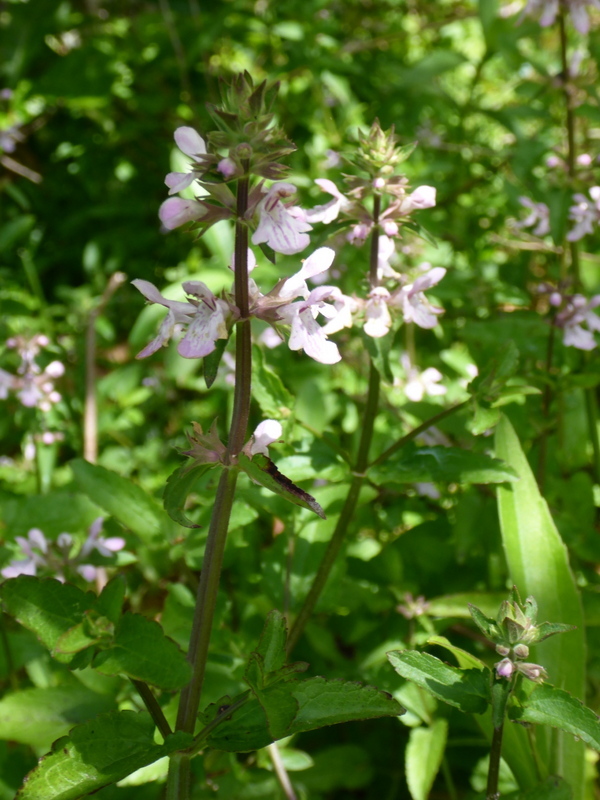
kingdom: Plantae
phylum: Tracheophyta
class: Magnoliopsida
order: Lamiales
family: Lamiaceae
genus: Stachys
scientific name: Stachys floridana
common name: Florida betony
